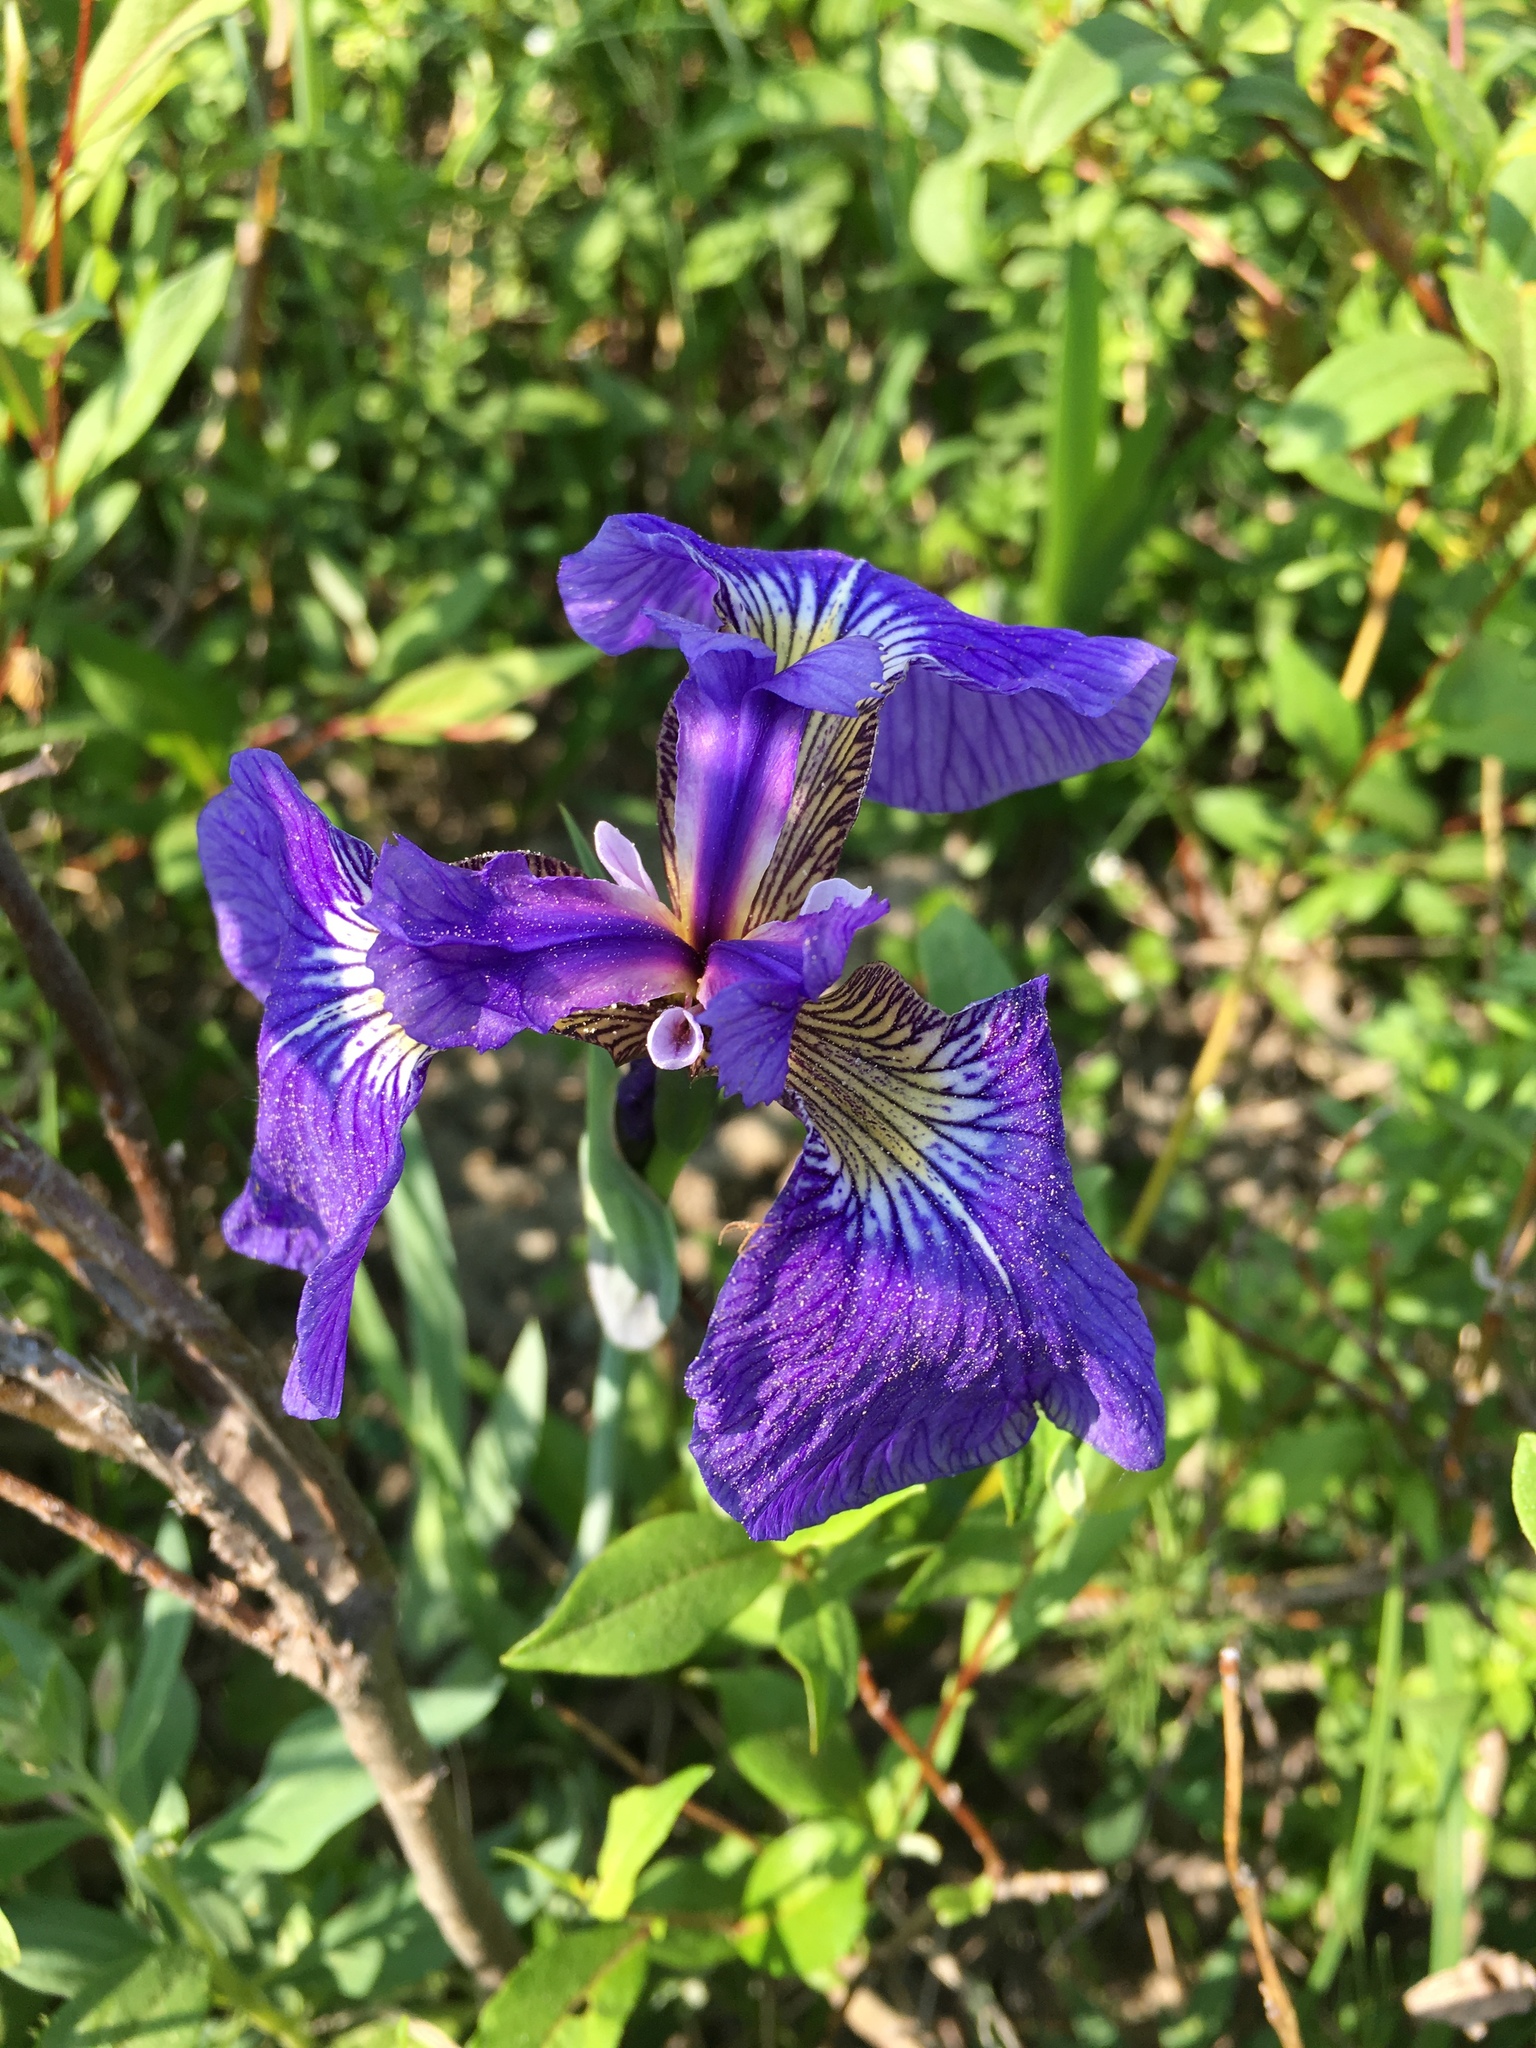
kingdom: Plantae
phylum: Tracheophyta
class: Liliopsida
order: Asparagales
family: Iridaceae
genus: Iris
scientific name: Iris setosa
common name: Arctic blue flag
